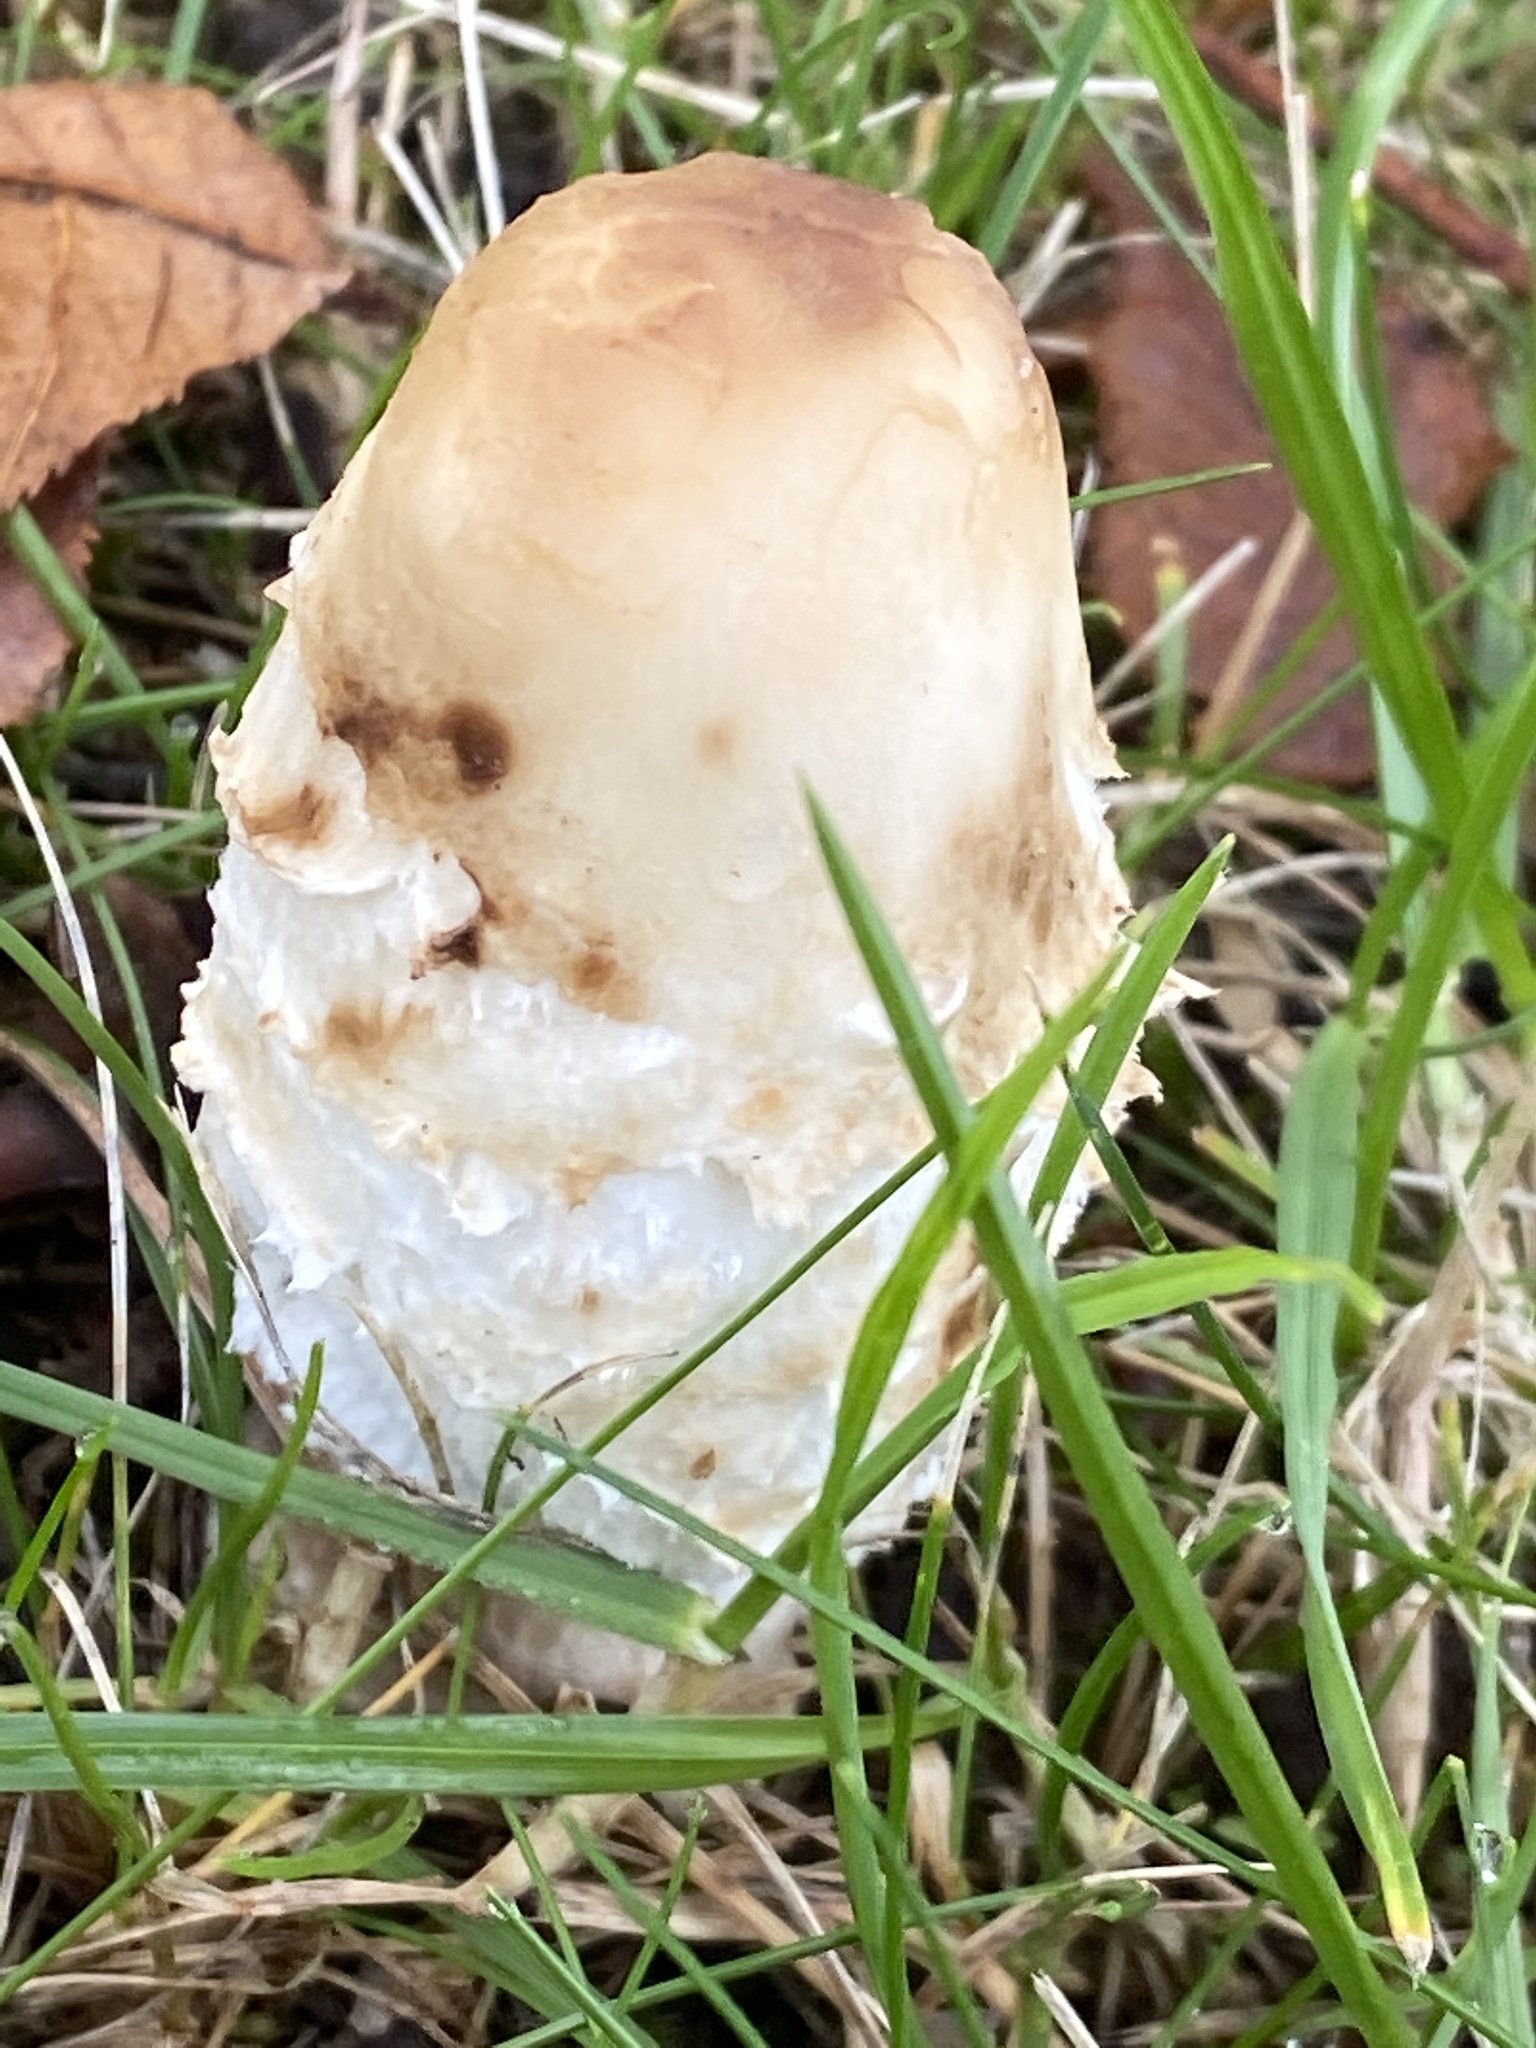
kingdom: Fungi
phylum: Basidiomycota
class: Agaricomycetes
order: Agaricales
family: Agaricaceae
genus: Coprinus
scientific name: Coprinus comatus
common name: Lawyer's wig
